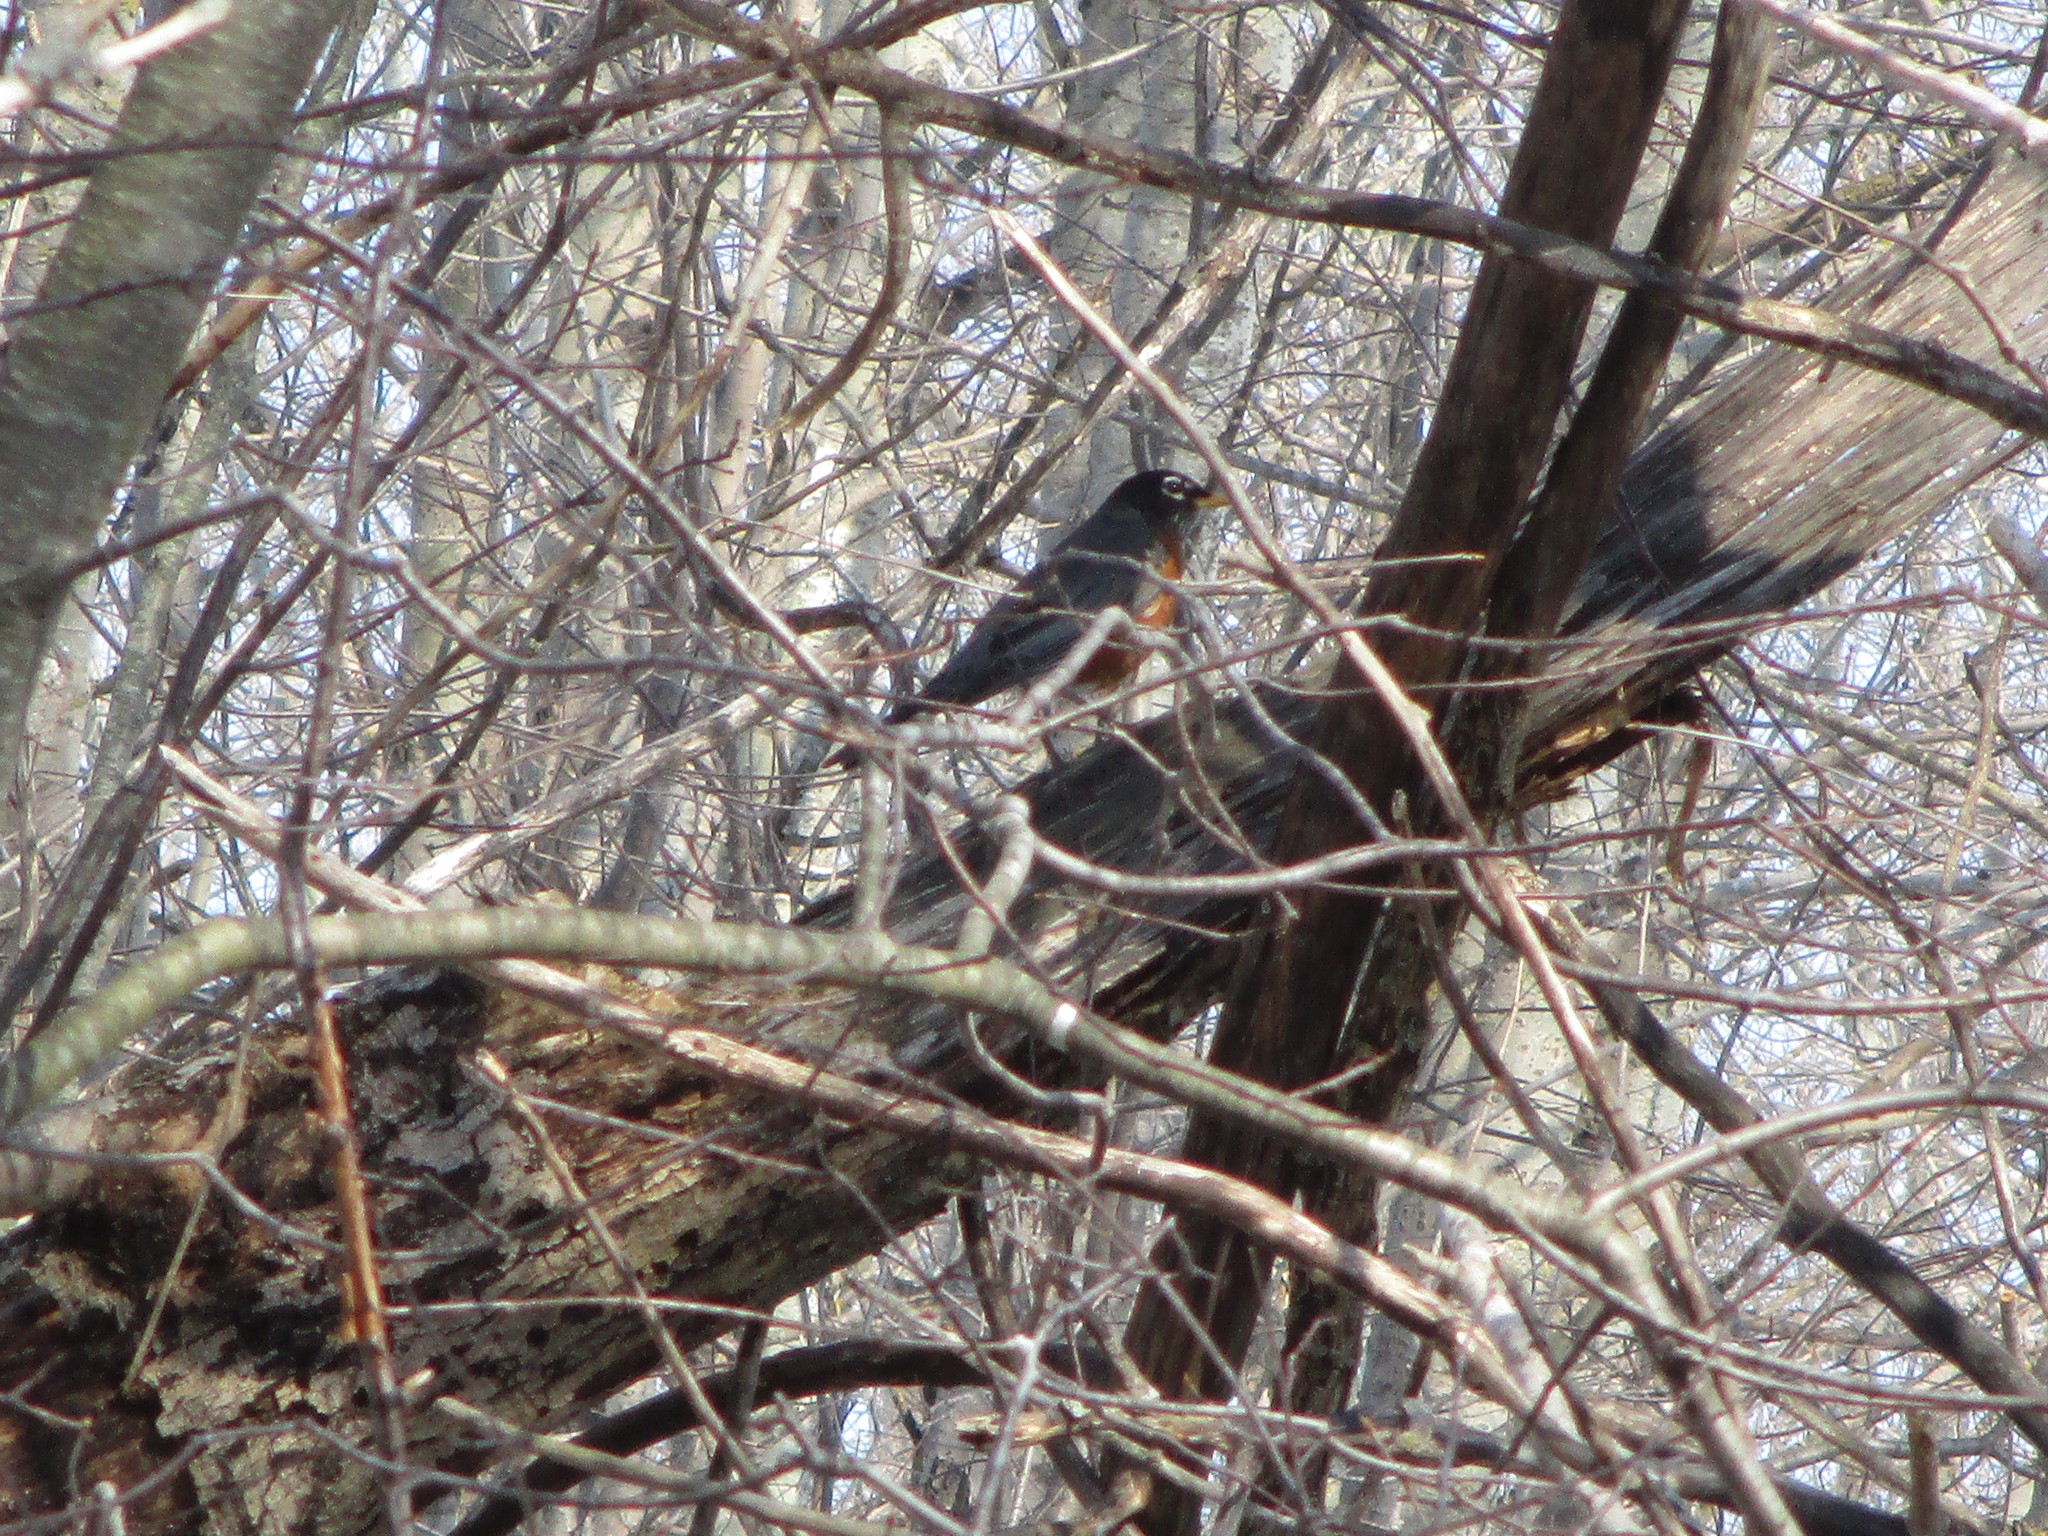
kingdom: Animalia
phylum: Chordata
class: Aves
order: Passeriformes
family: Turdidae
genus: Turdus
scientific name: Turdus migratorius
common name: American robin
